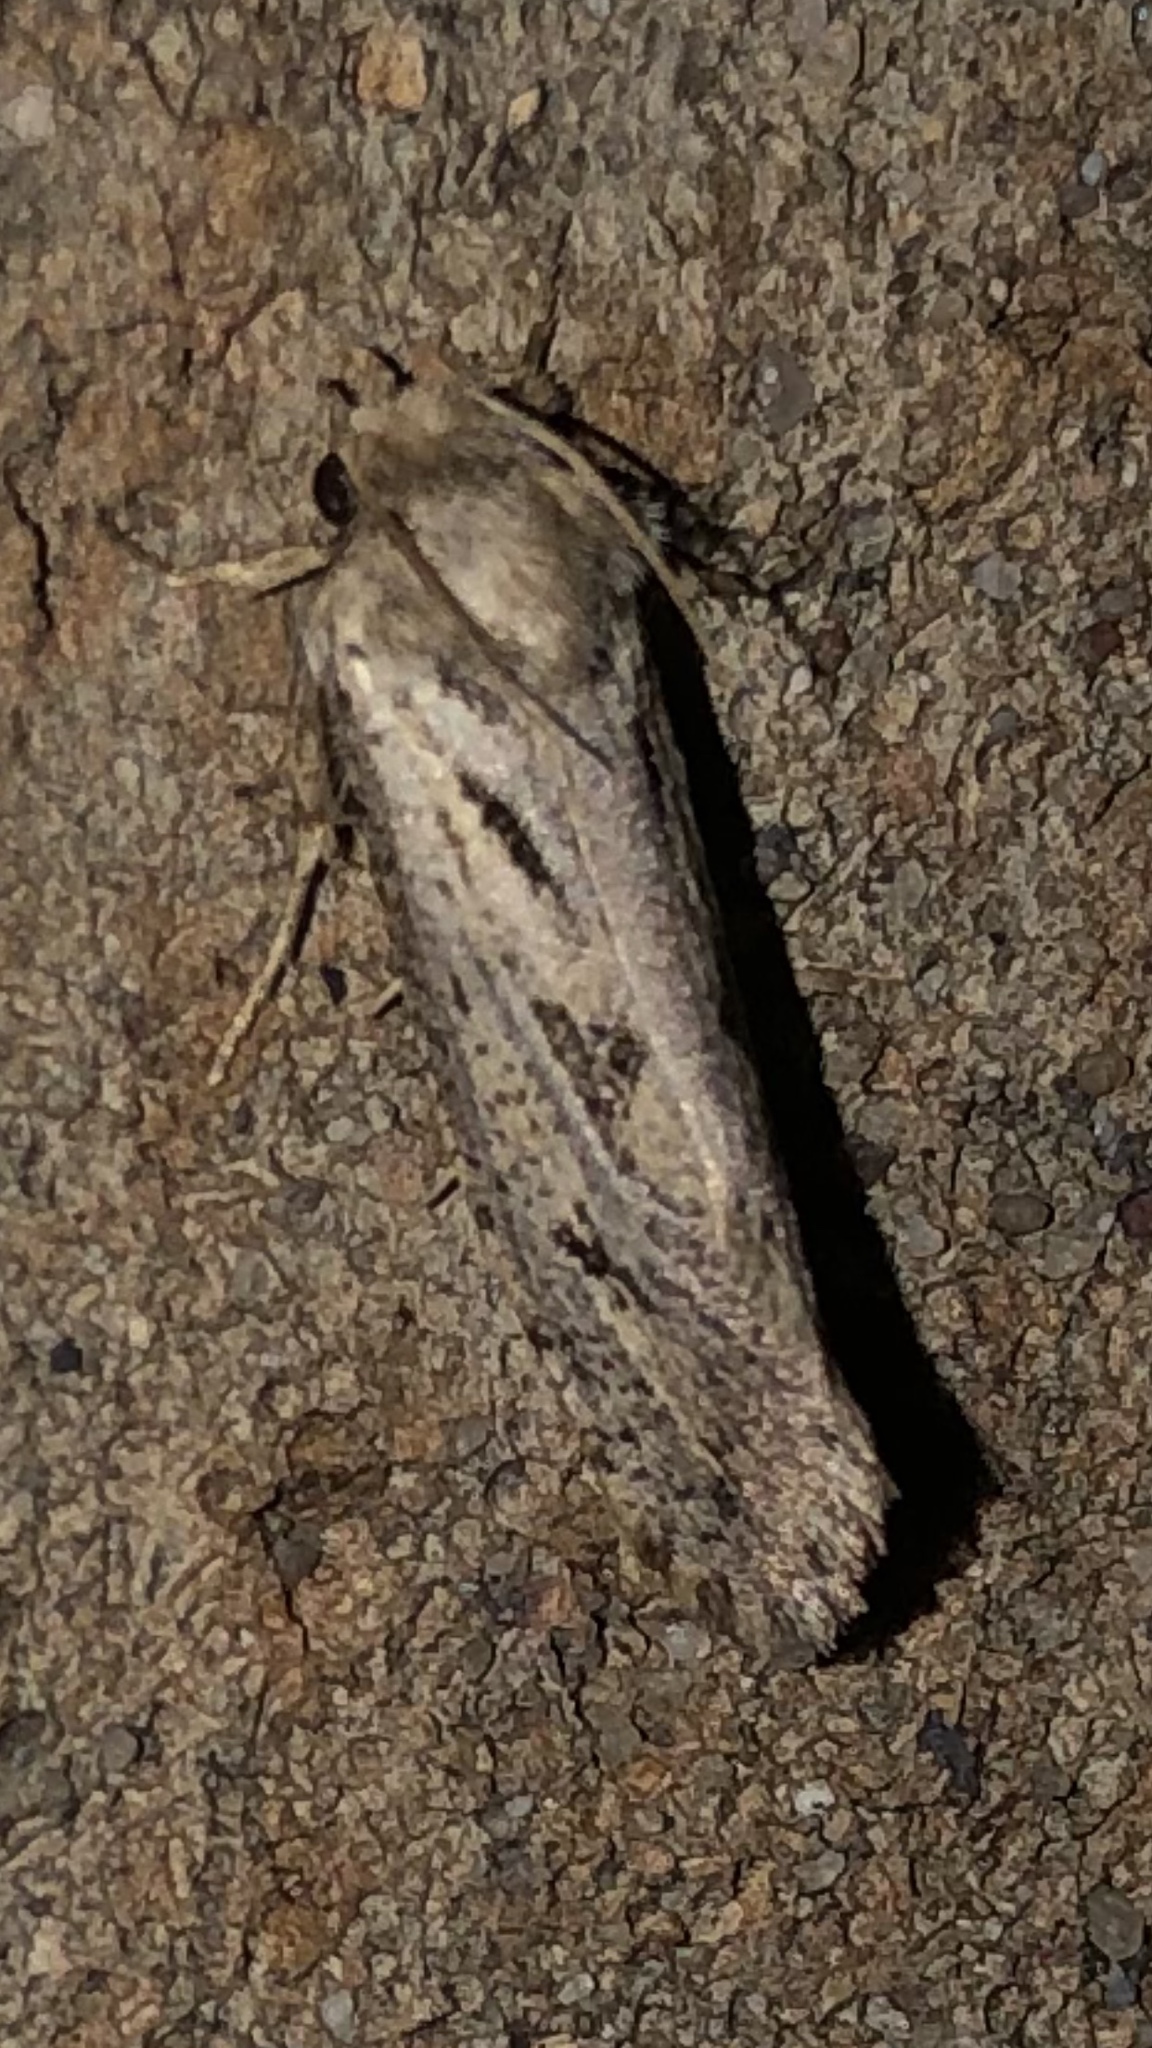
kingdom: Animalia
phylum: Arthropoda
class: Insecta
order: Lepidoptera
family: Tineidae
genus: Acrolophus
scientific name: Acrolophus popeanella
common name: Clemens' grass tubeworm moth
